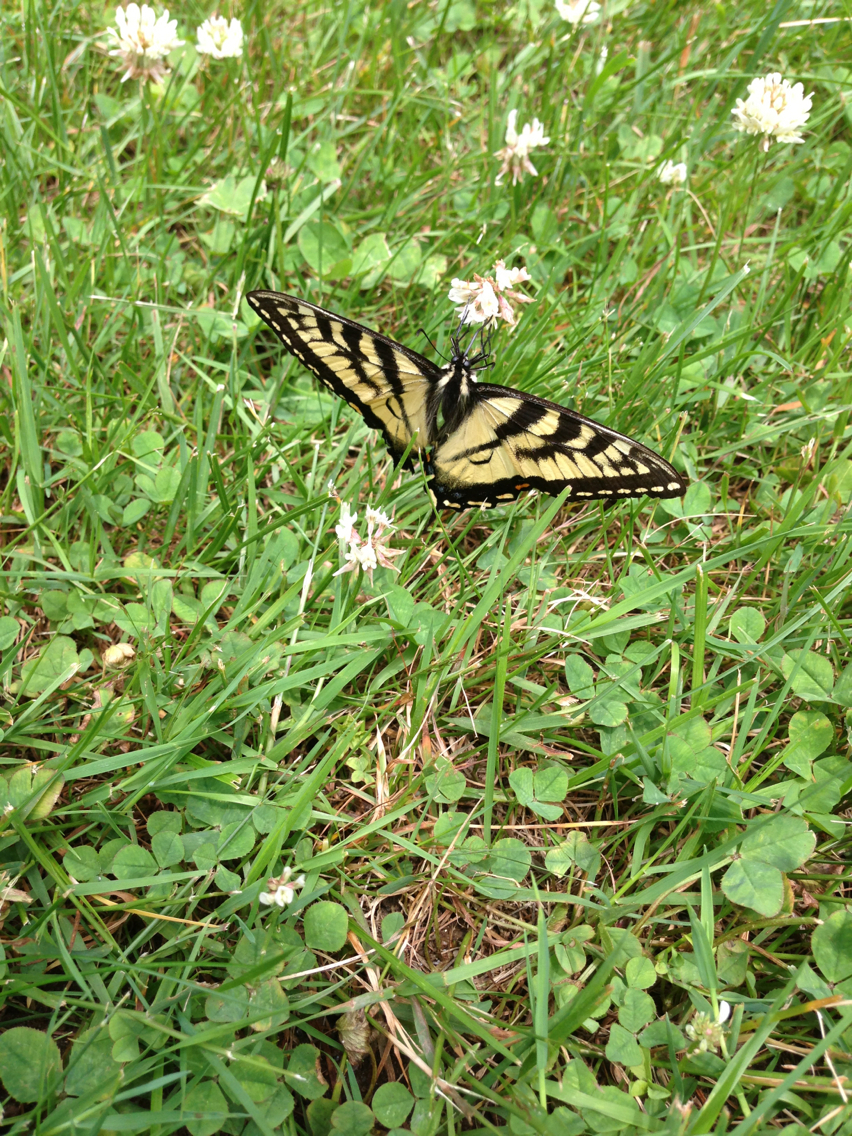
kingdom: Animalia
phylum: Arthropoda
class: Insecta
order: Lepidoptera
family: Papilionidae
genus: Papilio
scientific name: Papilio canadensis
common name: Canadian tiger swallowtail
